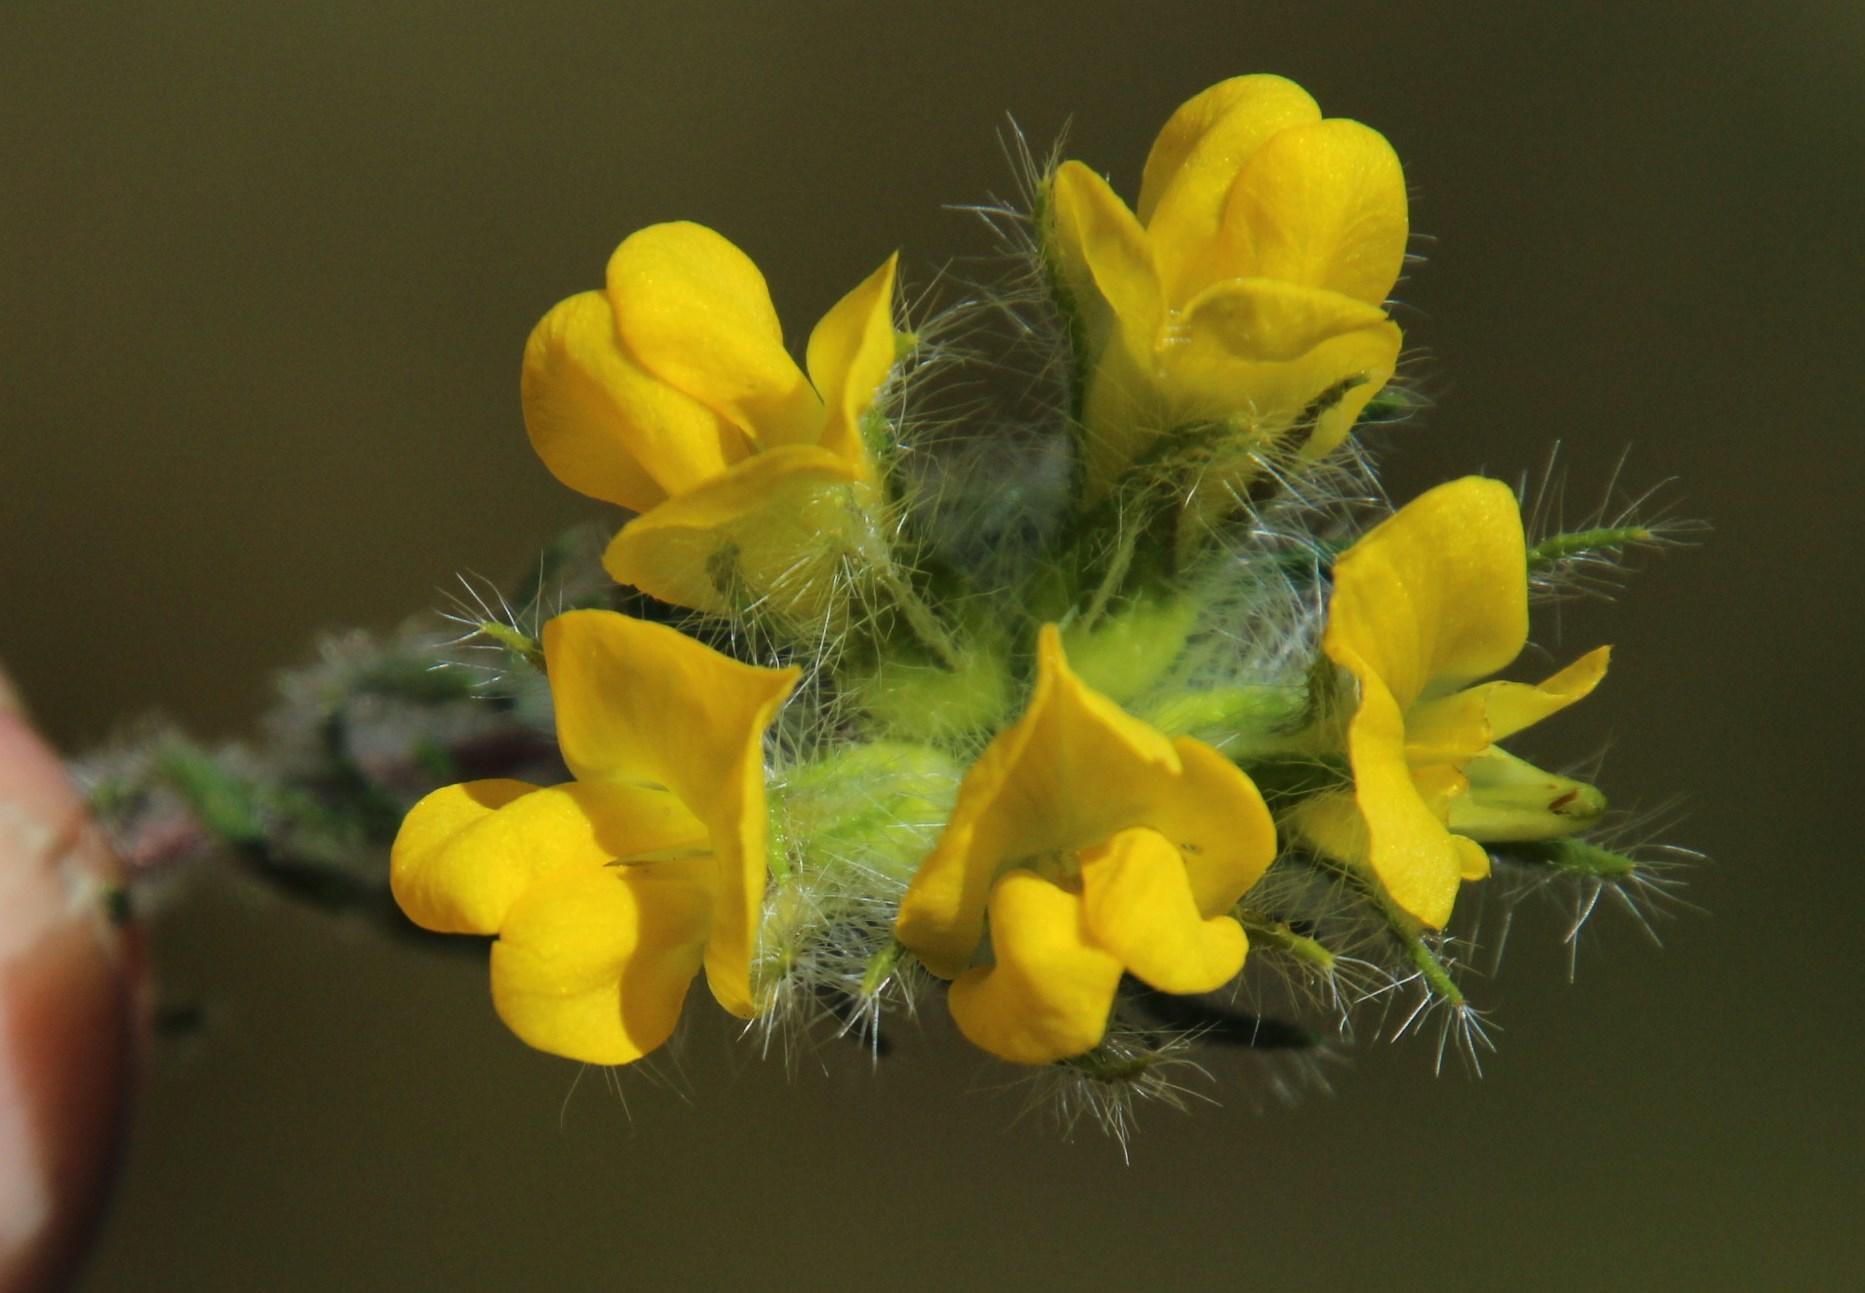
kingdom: Plantae
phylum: Tracheophyta
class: Magnoliopsida
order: Fabales
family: Fabaceae
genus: Lotononis
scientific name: Lotononis involucrata
